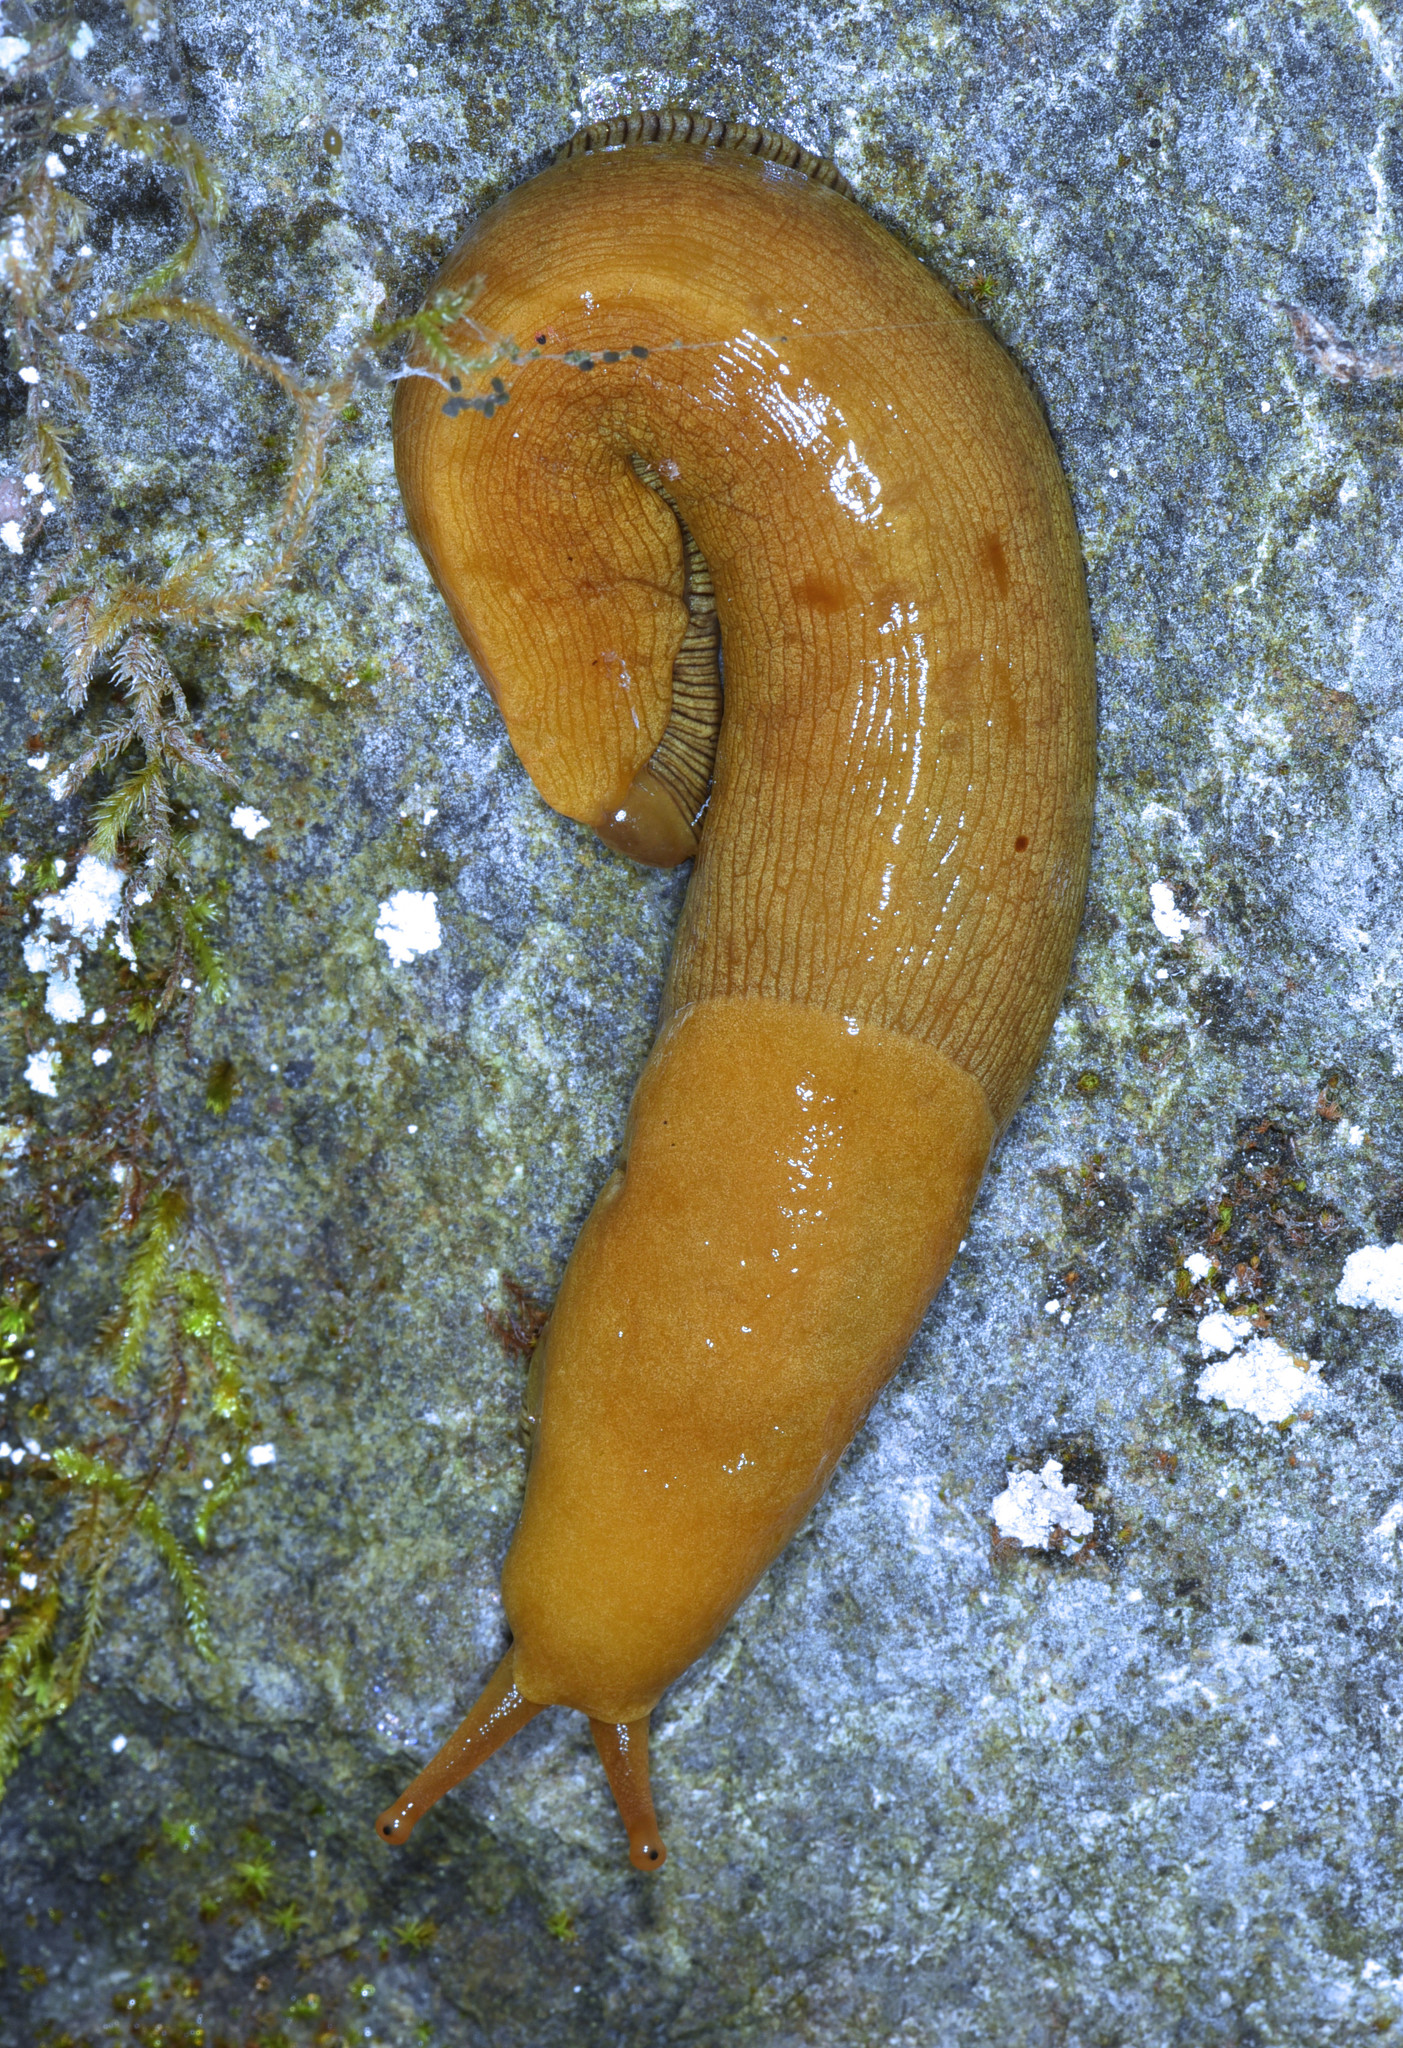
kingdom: Animalia
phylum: Mollusca
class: Gastropoda
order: Stylommatophora
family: Ariolimacidae
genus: Ariolimax
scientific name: Ariolimax buttoni
